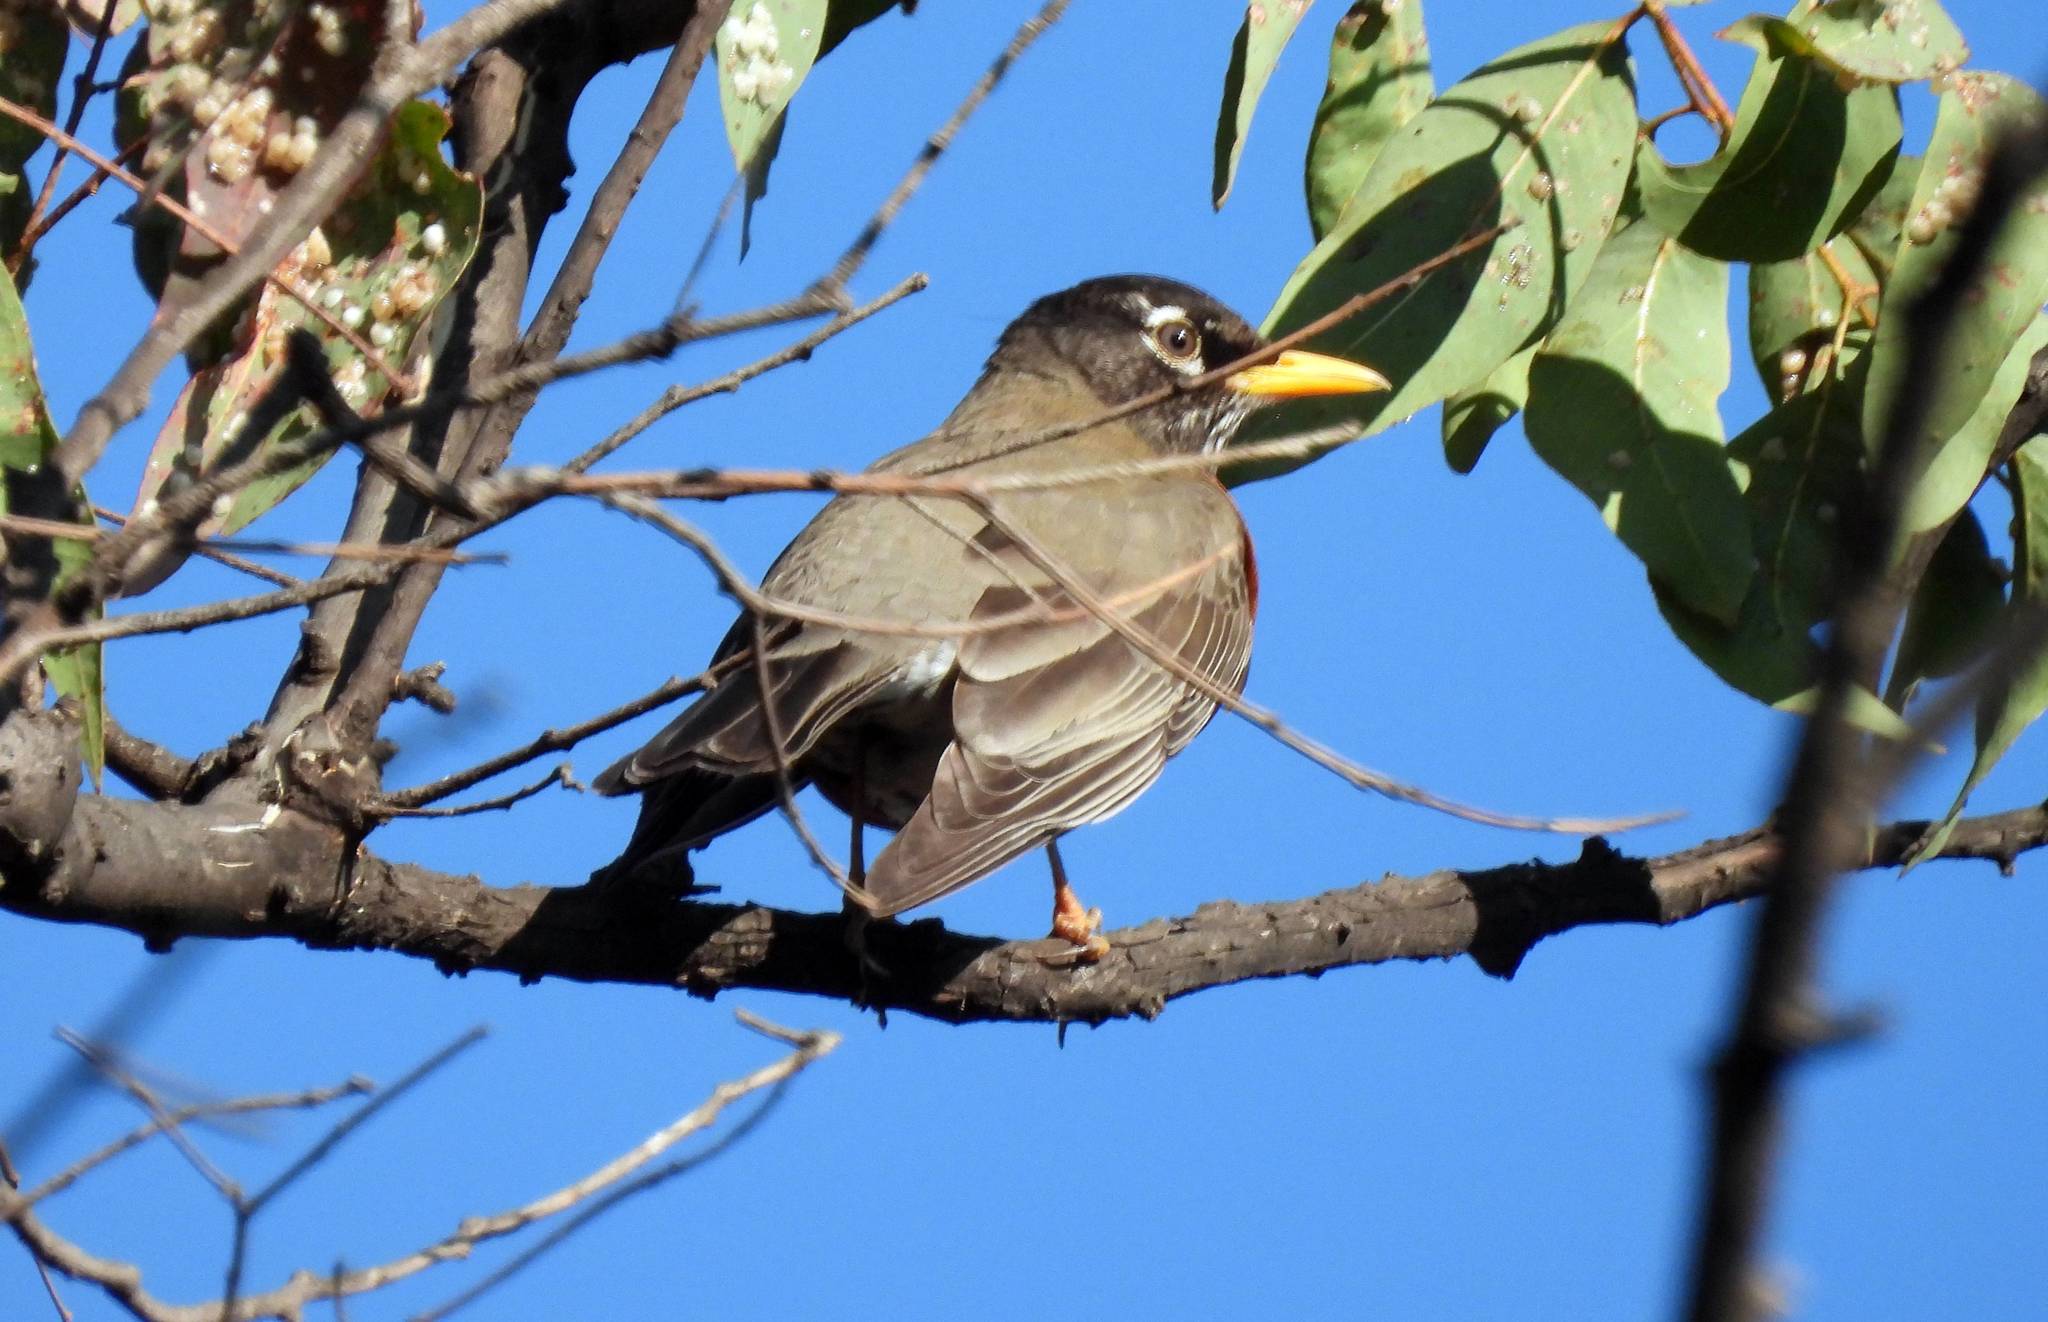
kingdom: Animalia
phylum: Chordata
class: Aves
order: Passeriformes
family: Turdidae
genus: Turdus
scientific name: Turdus migratorius
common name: American robin
